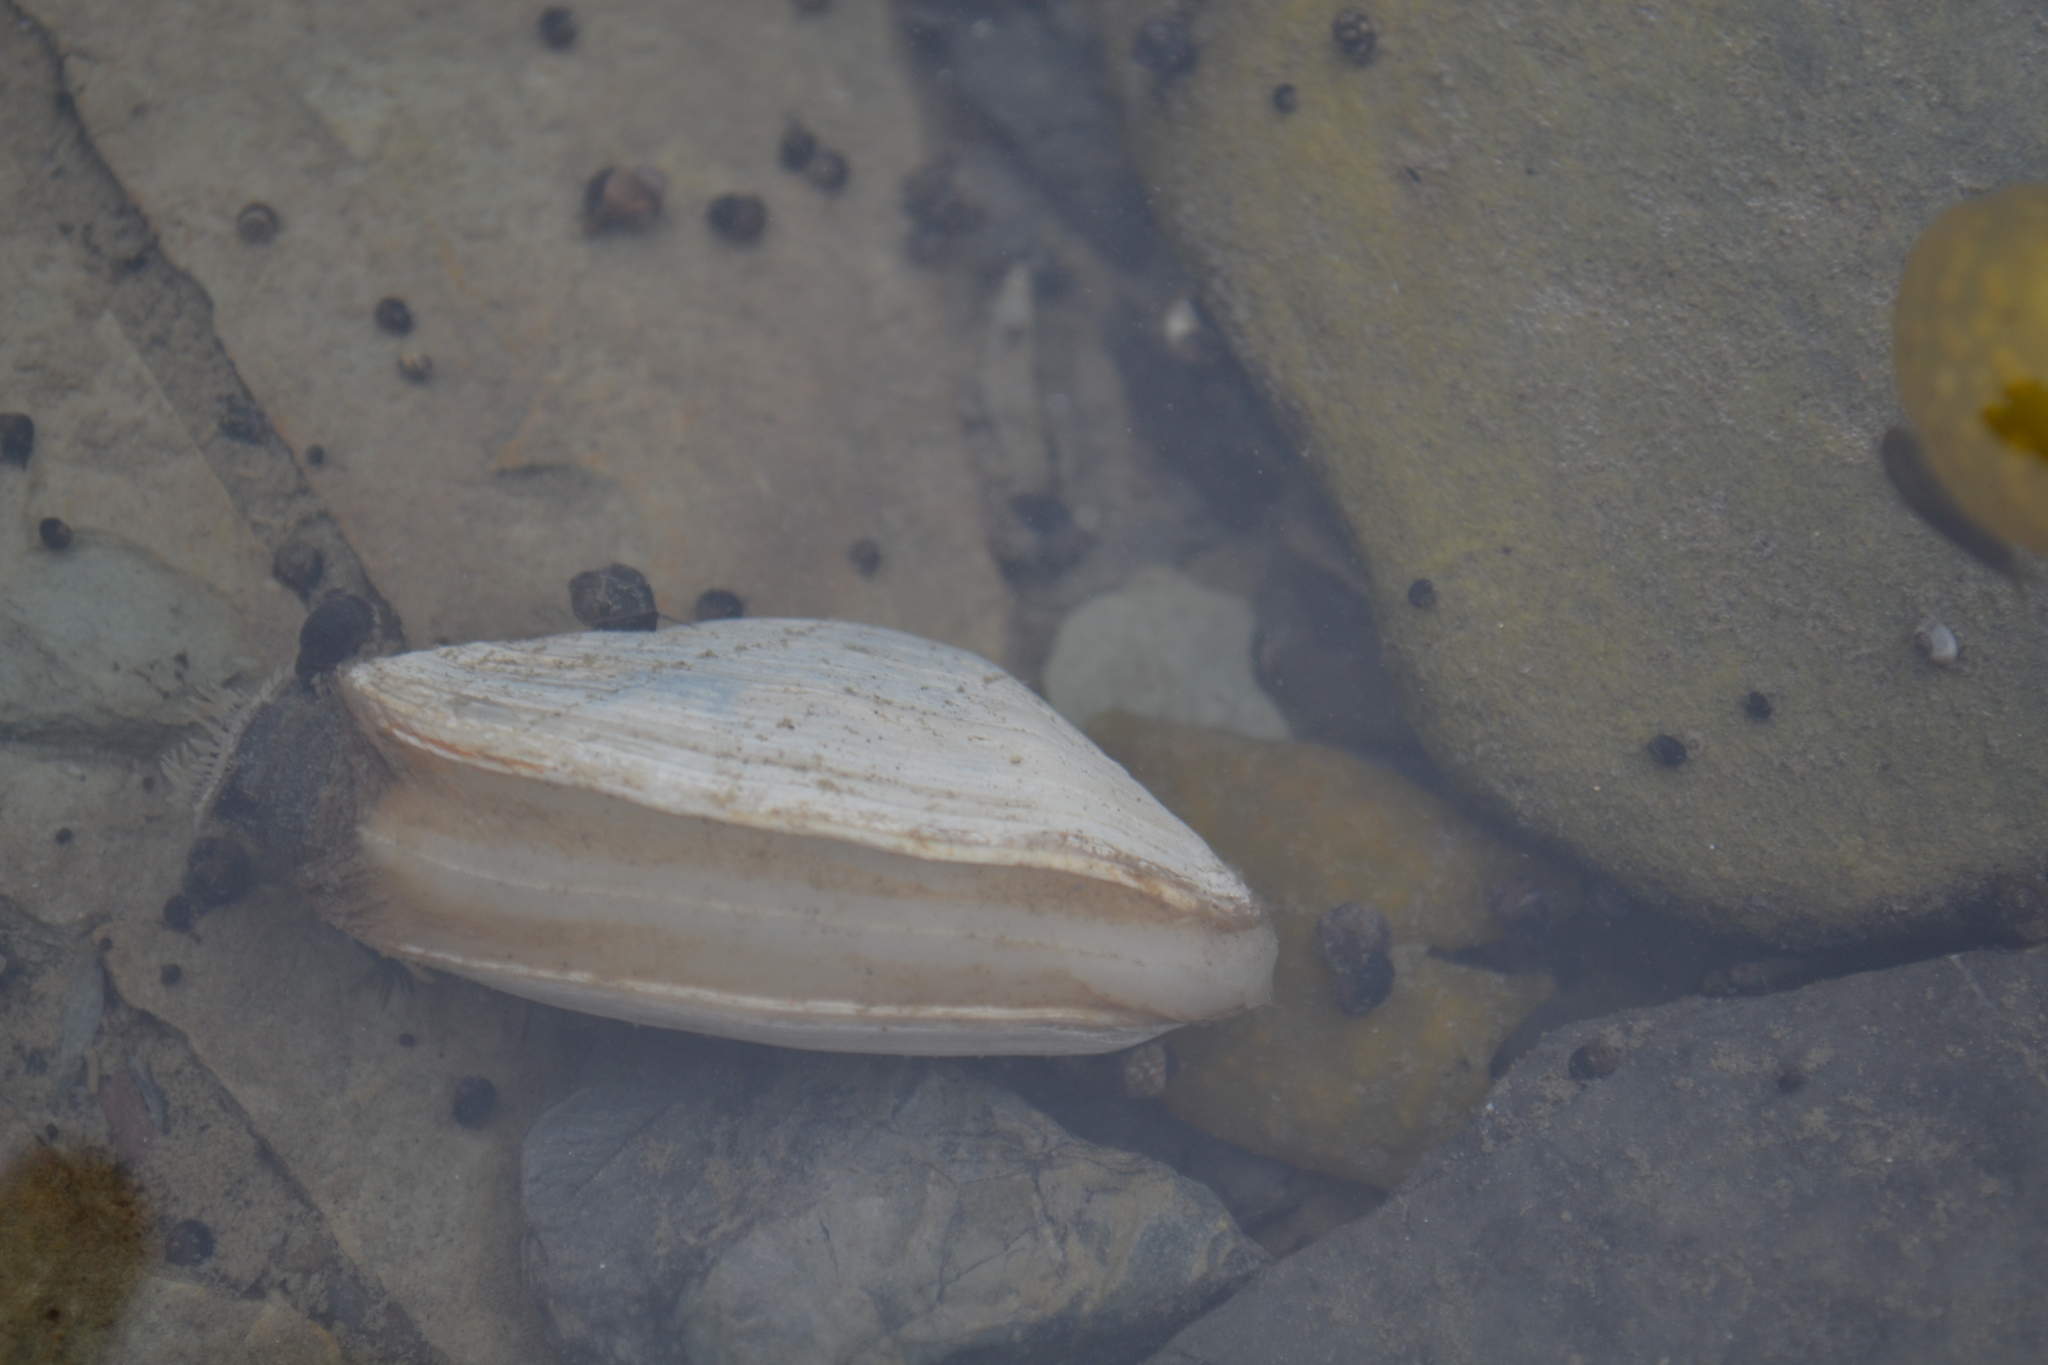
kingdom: Animalia
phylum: Mollusca
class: Bivalvia
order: Myida
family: Myidae
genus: Mya
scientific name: Mya arenaria
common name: Soft-shelled clam
